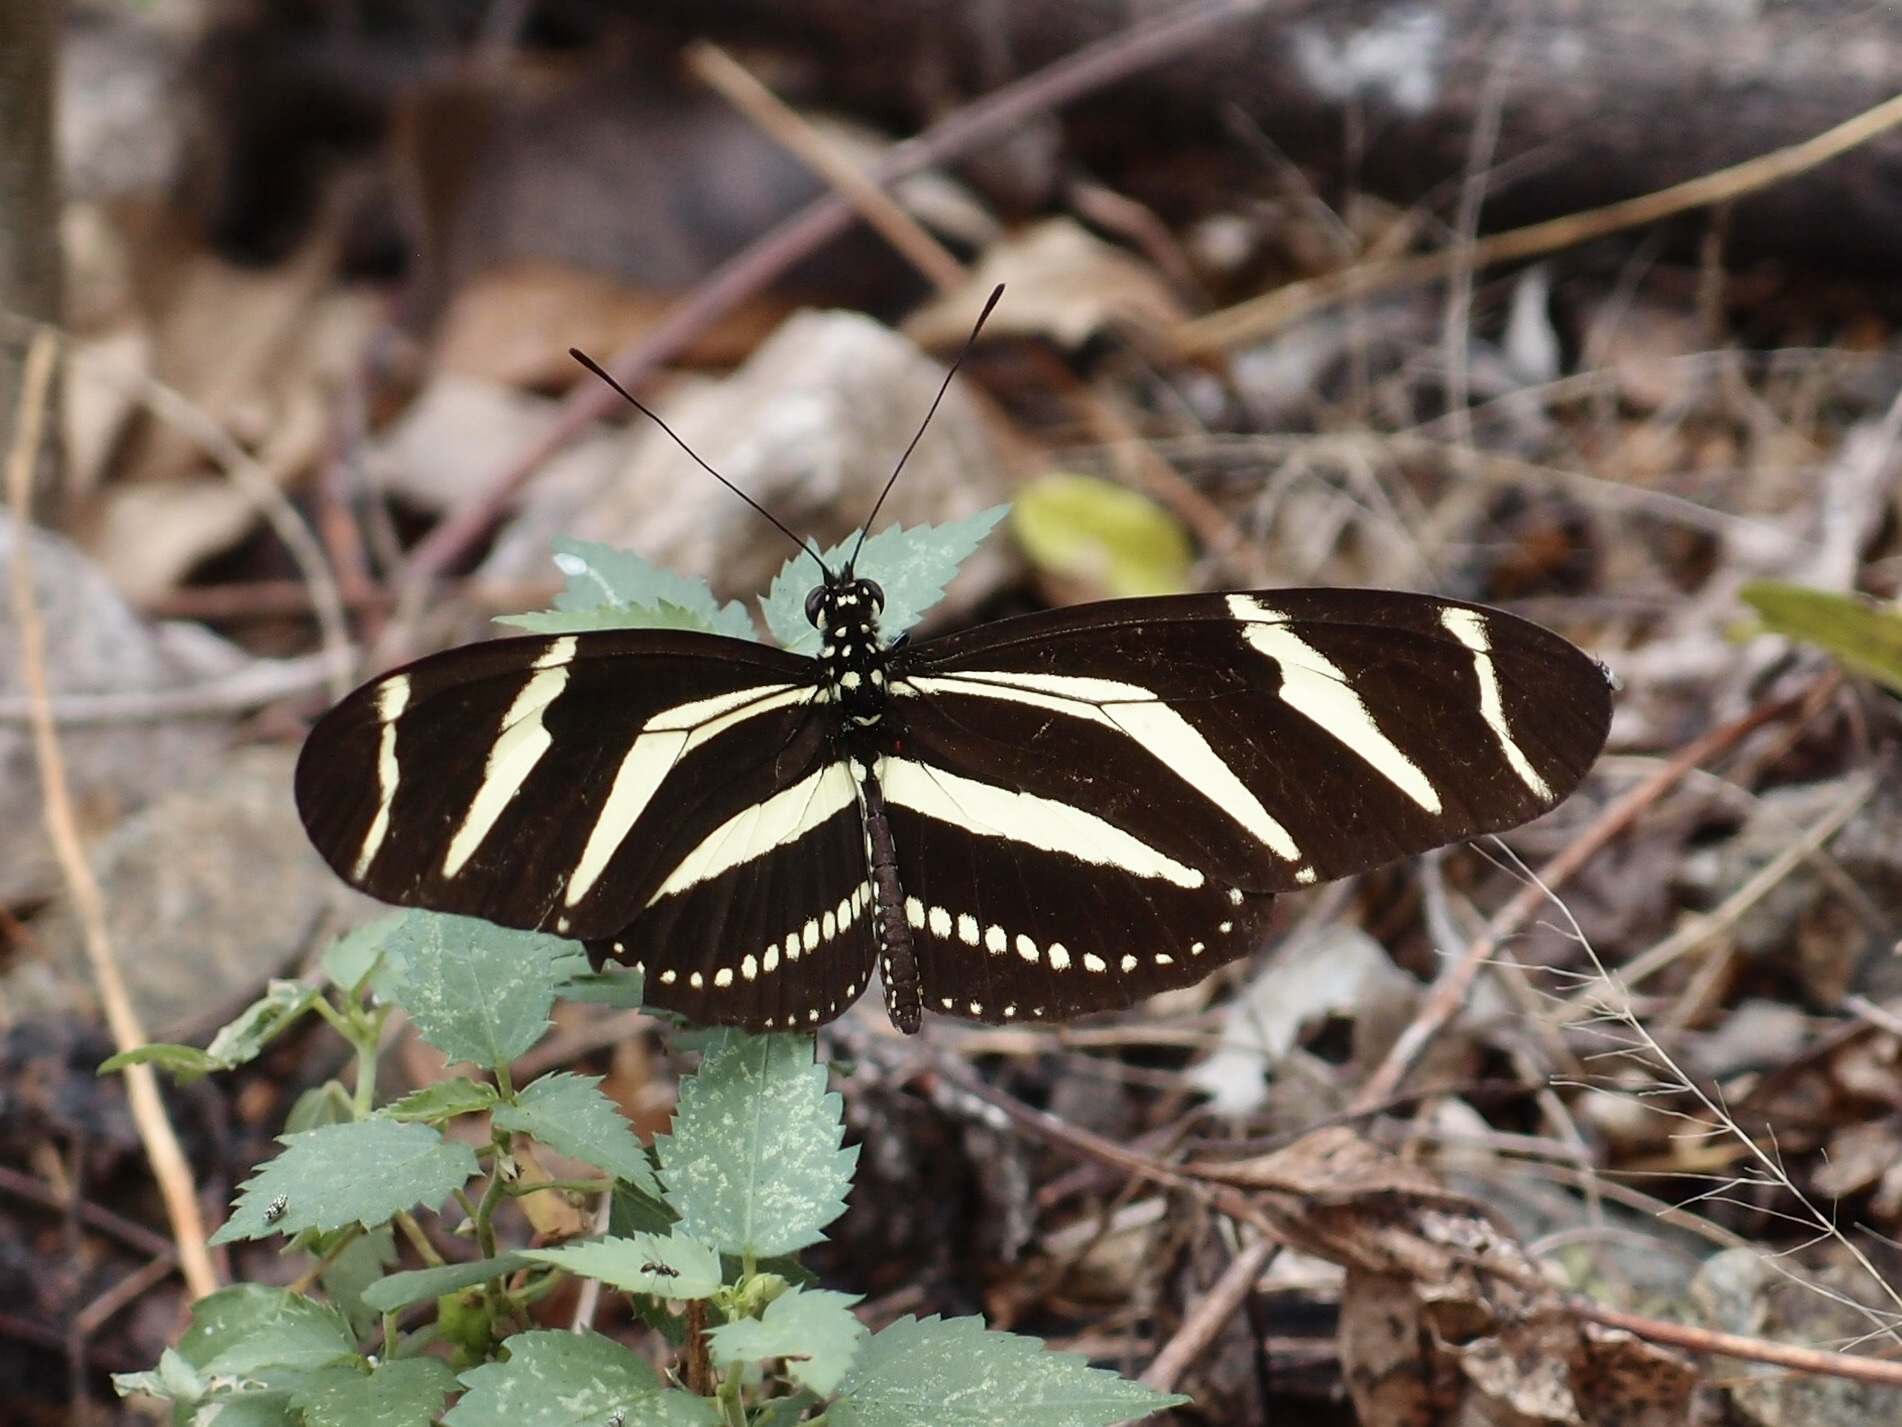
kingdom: Animalia
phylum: Arthropoda
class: Insecta
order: Lepidoptera
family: Nymphalidae
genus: Heliconius
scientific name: Heliconius charithonia
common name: Zebra long wing
